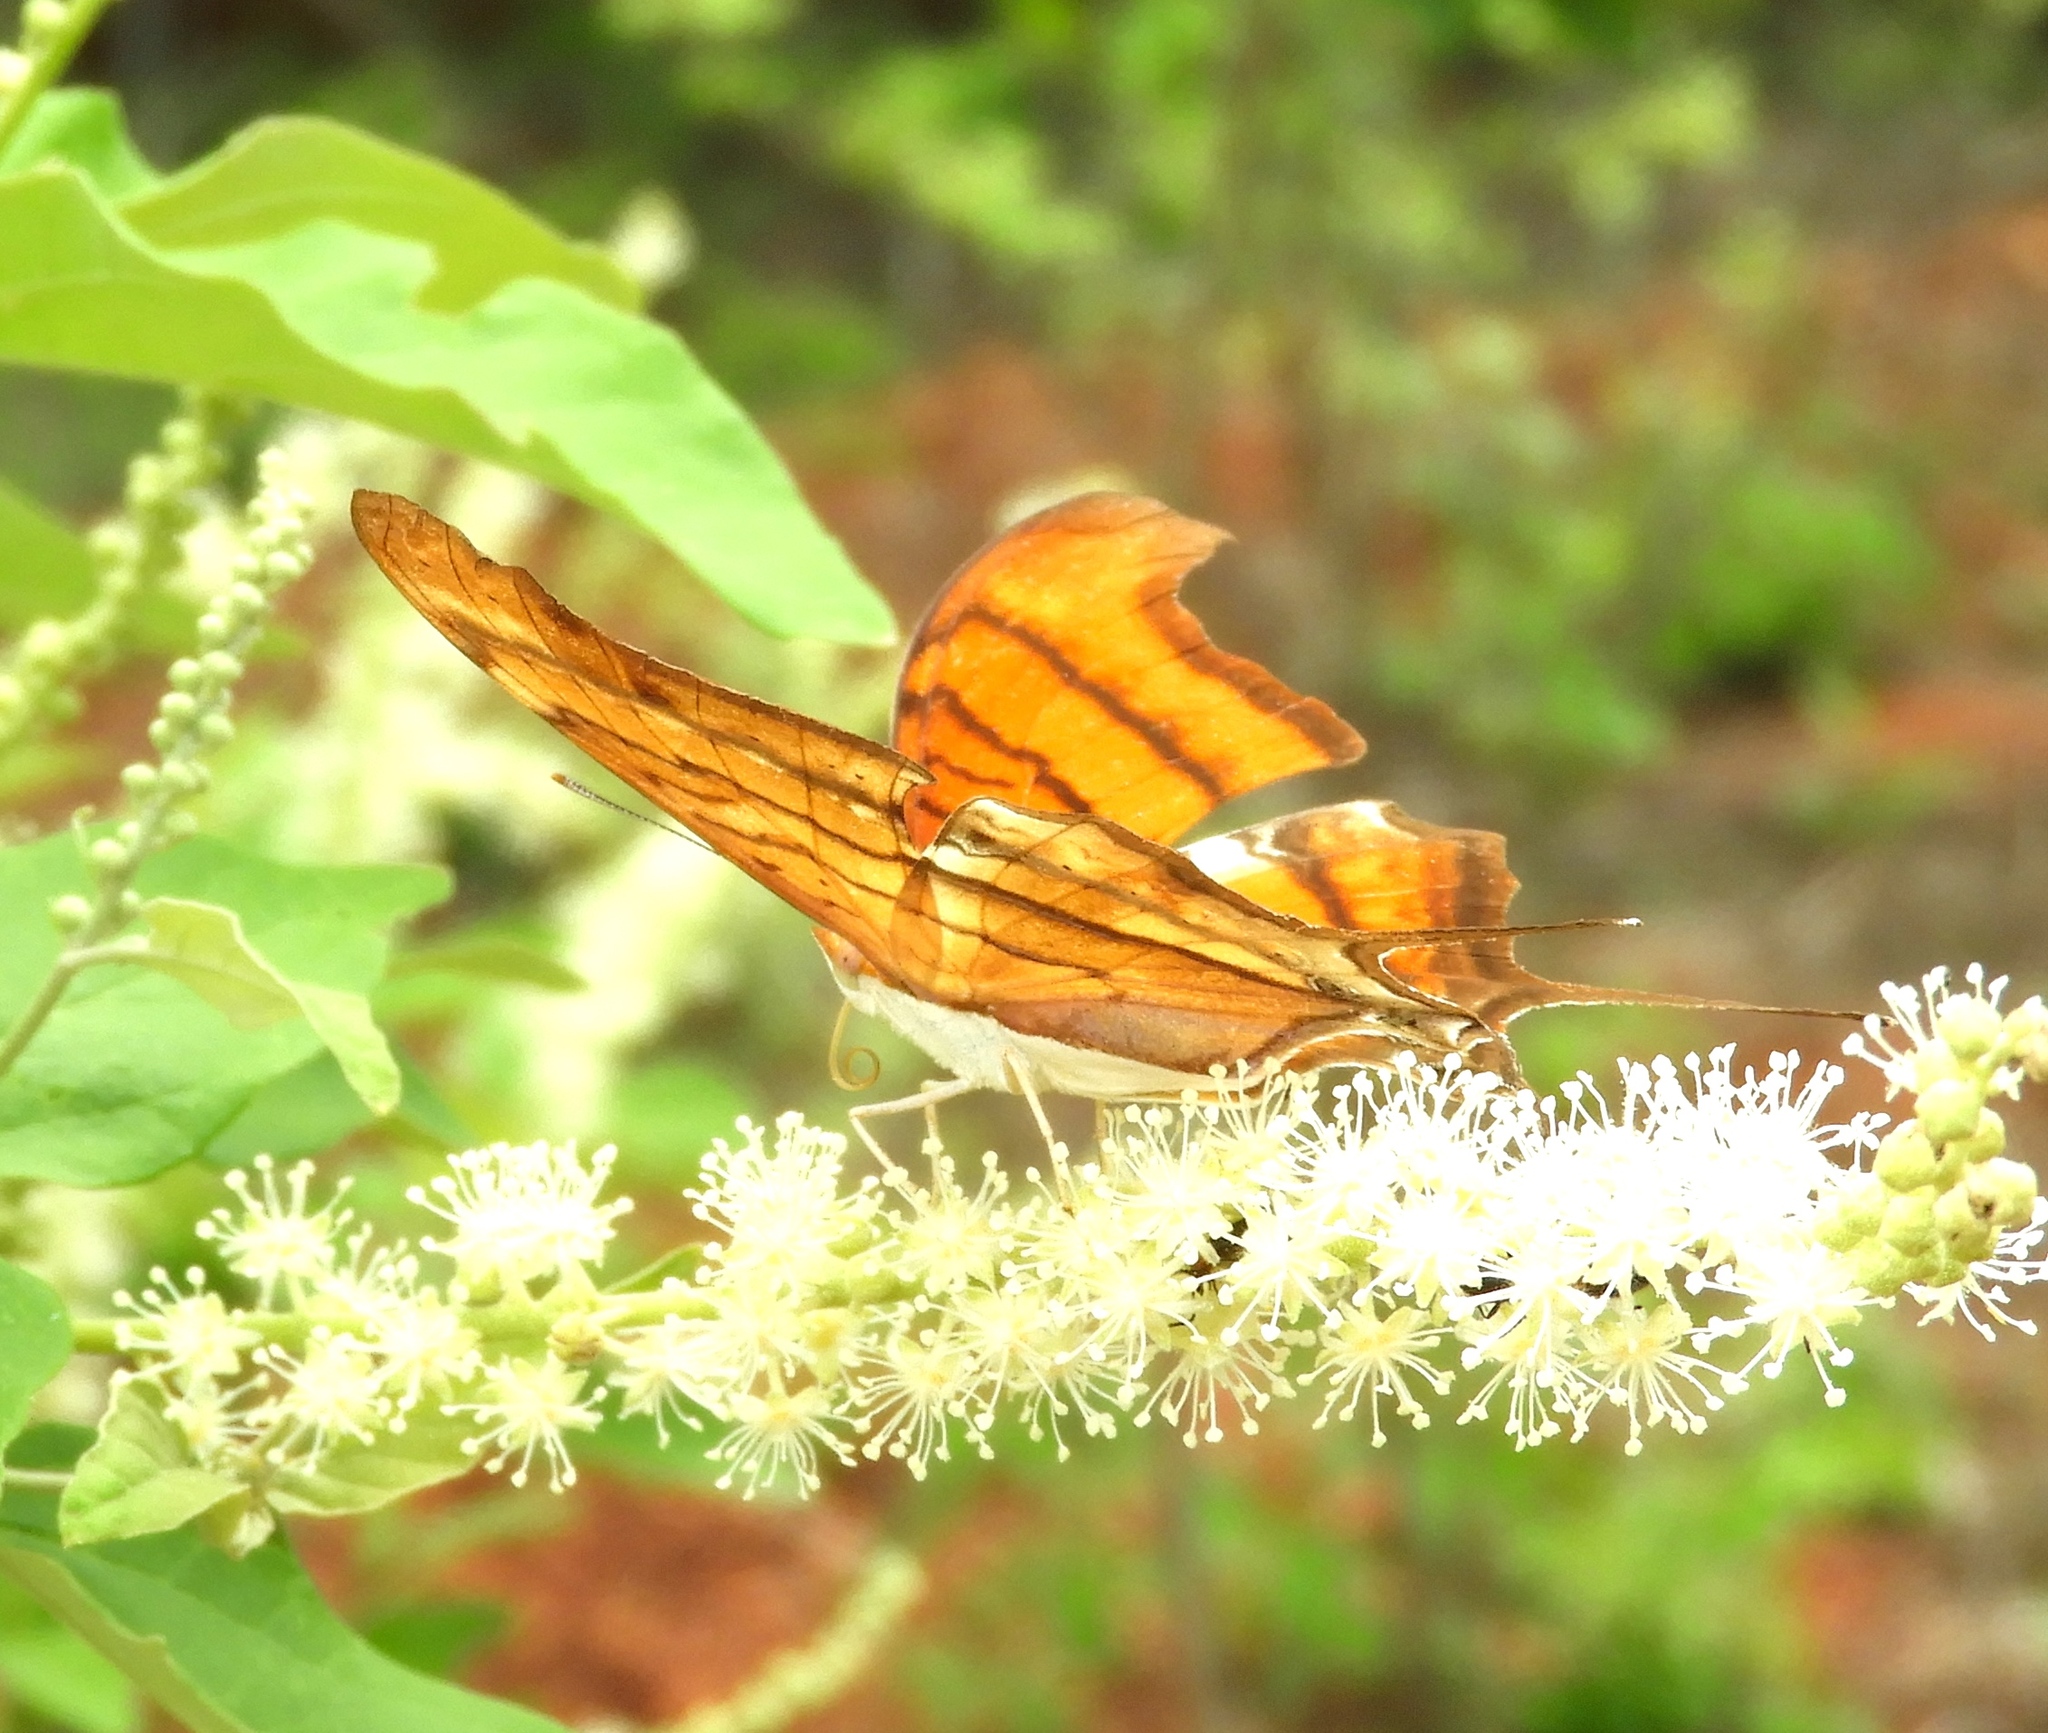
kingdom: Animalia
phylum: Arthropoda
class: Insecta
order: Lepidoptera
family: Nymphalidae
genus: Marpesia
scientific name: Marpesia petreus
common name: Red dagger wing
